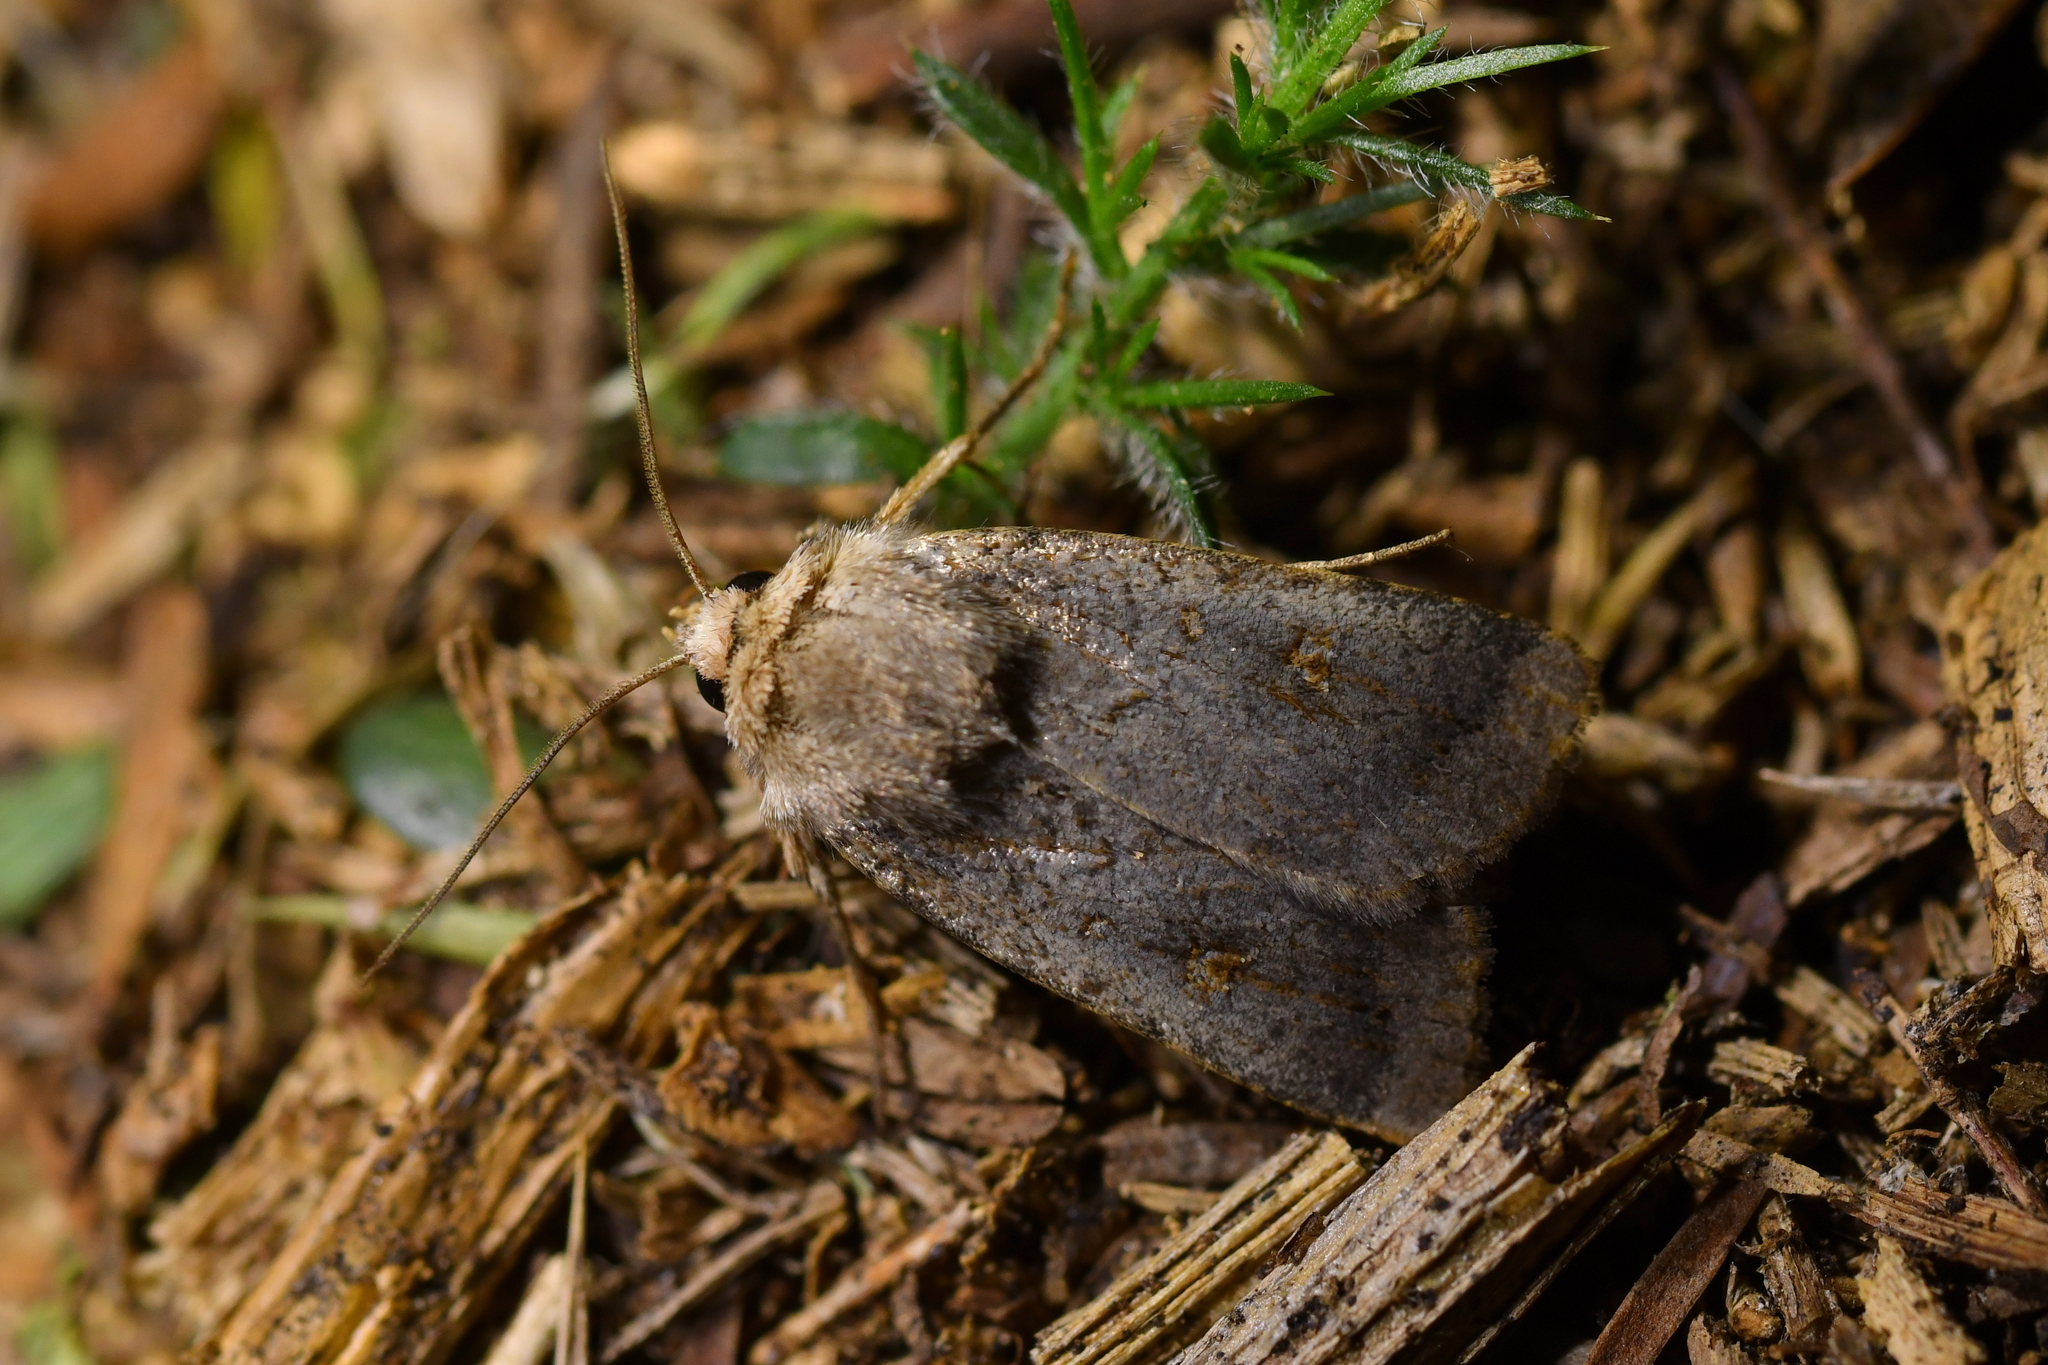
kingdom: Animalia
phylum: Arthropoda
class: Insecta
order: Lepidoptera
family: Noctuidae
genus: Proteuxoa
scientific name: Proteuxoa tetronycha
